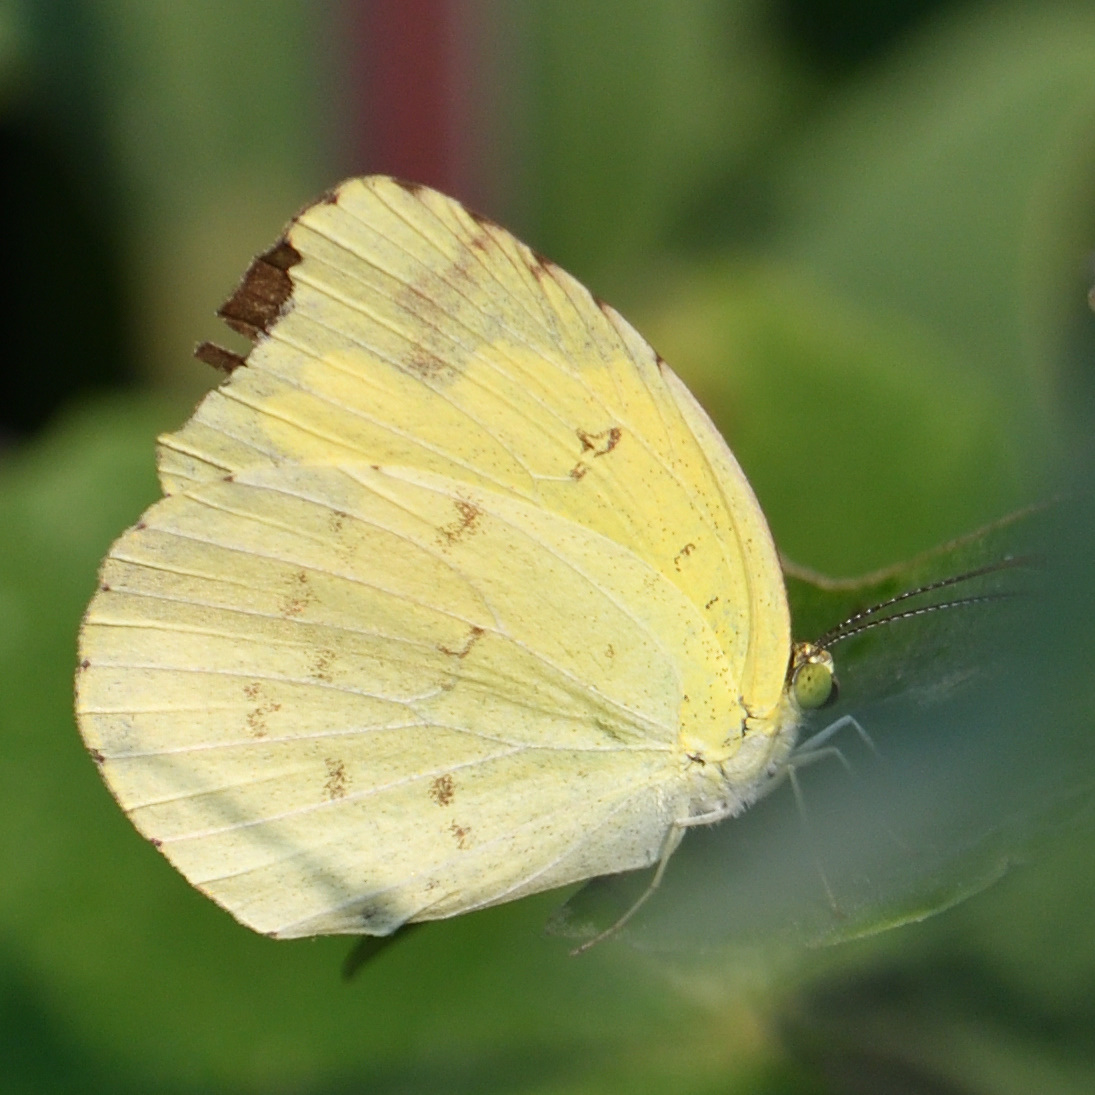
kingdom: Animalia
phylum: Arthropoda
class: Insecta
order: Lepidoptera
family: Pieridae
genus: Eurema
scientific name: Eurema hecabe
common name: Pale grass yellow
